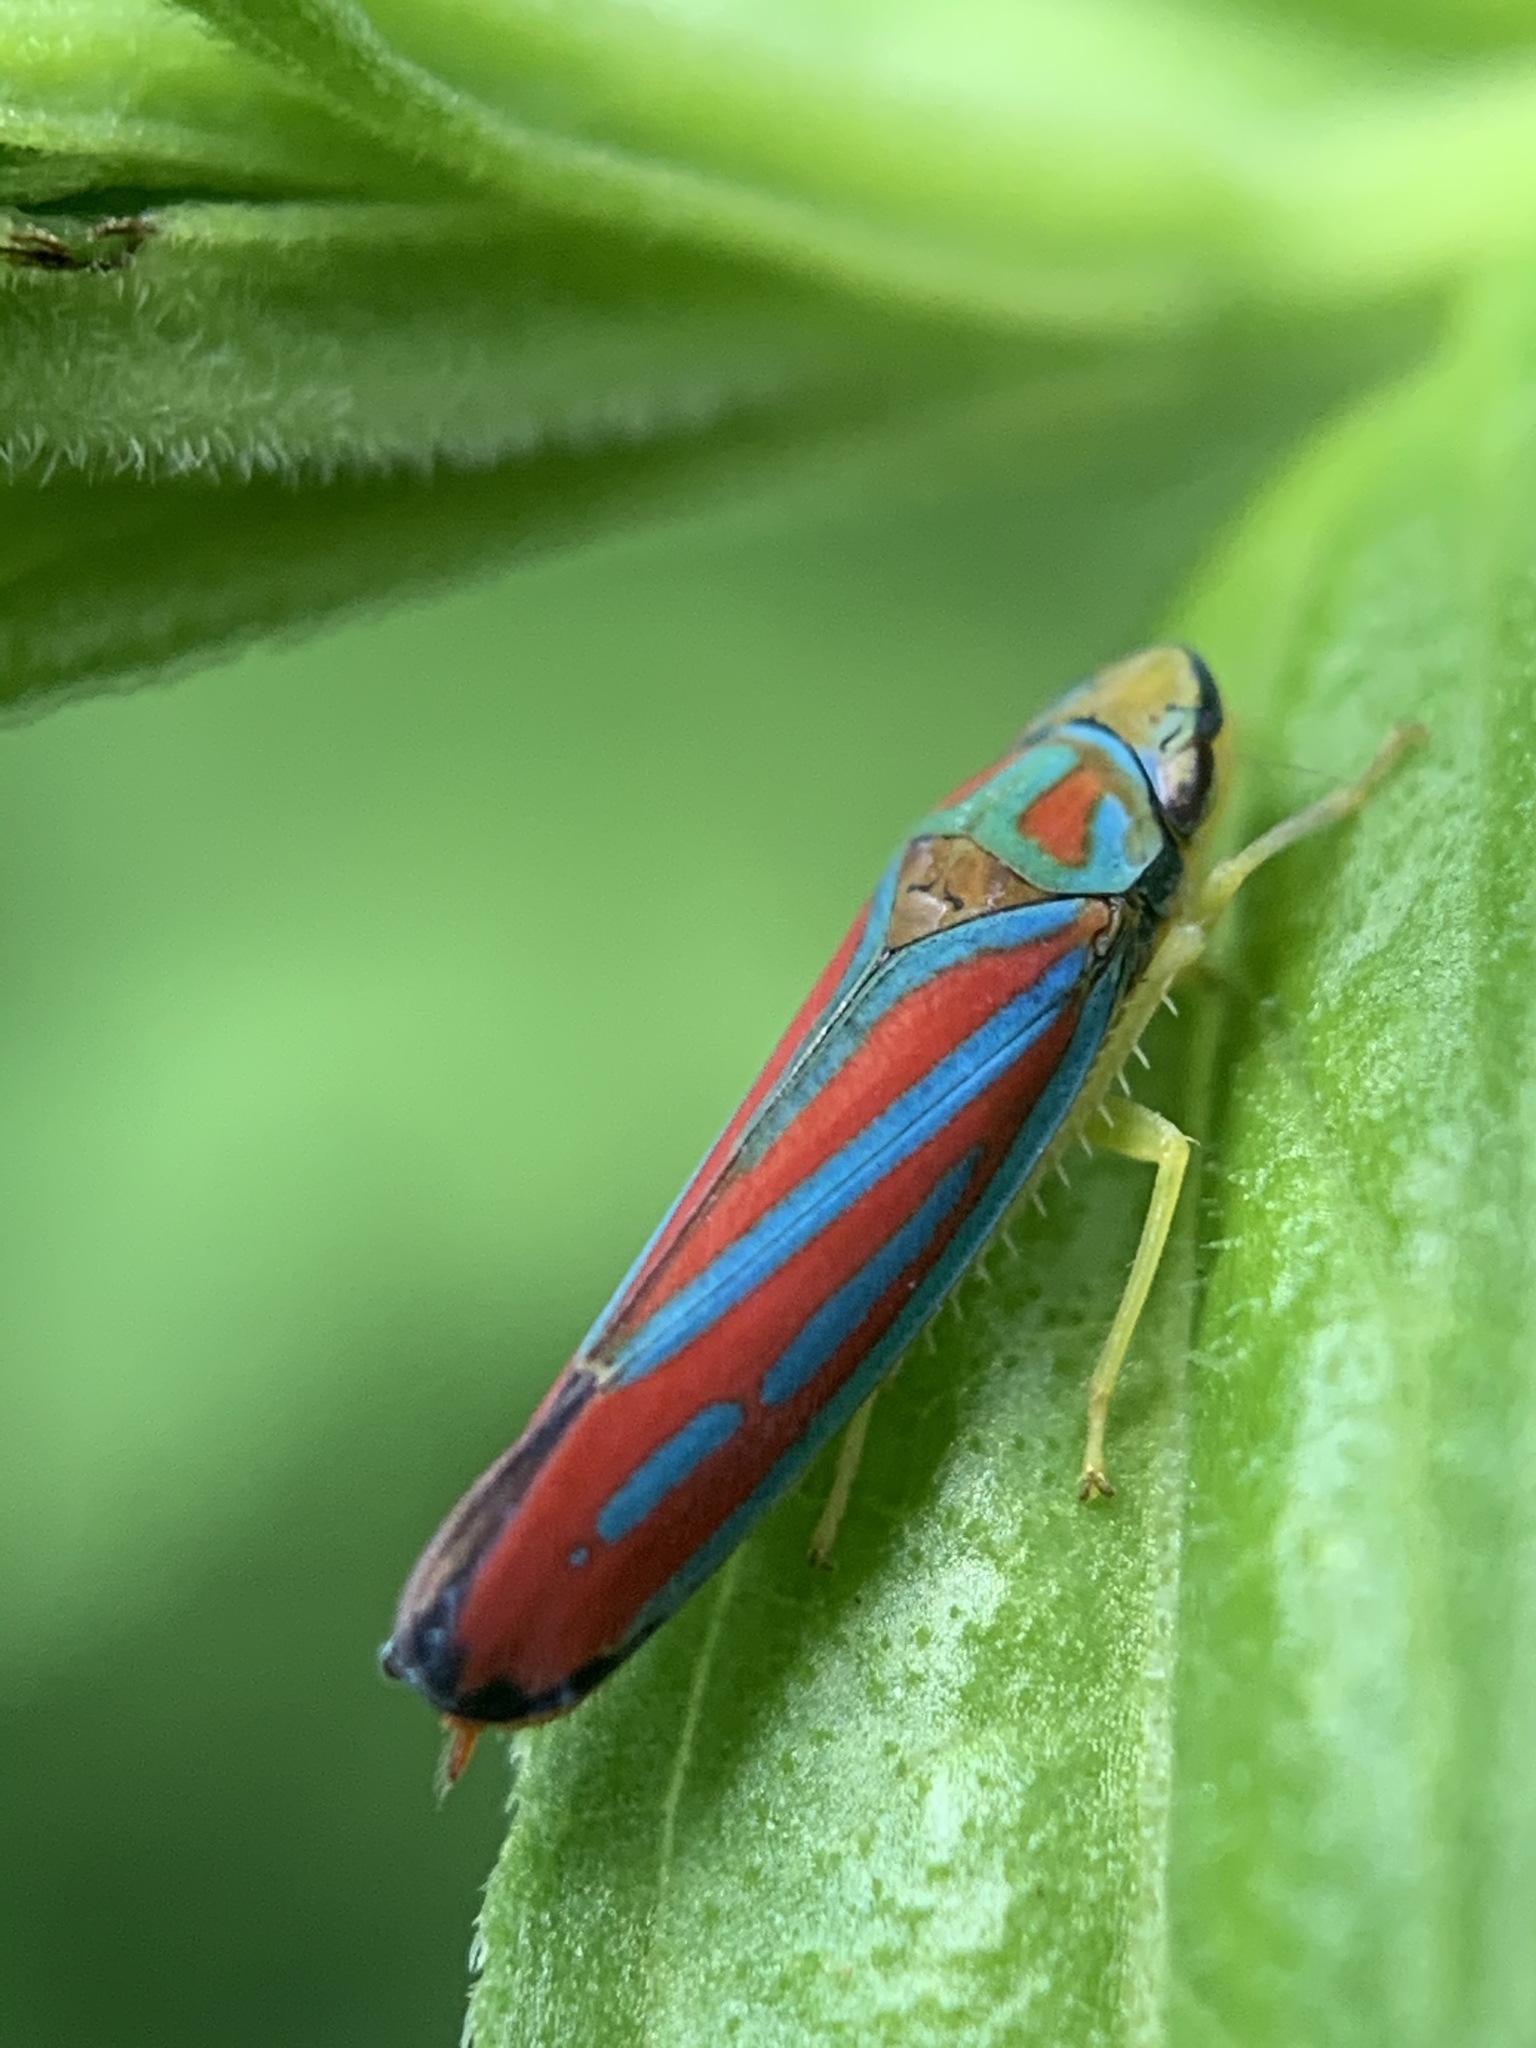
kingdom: Animalia
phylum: Arthropoda
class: Insecta
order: Hemiptera
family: Cicadellidae
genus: Graphocephala
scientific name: Graphocephala coccinea
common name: Candy-striped leafhopper
